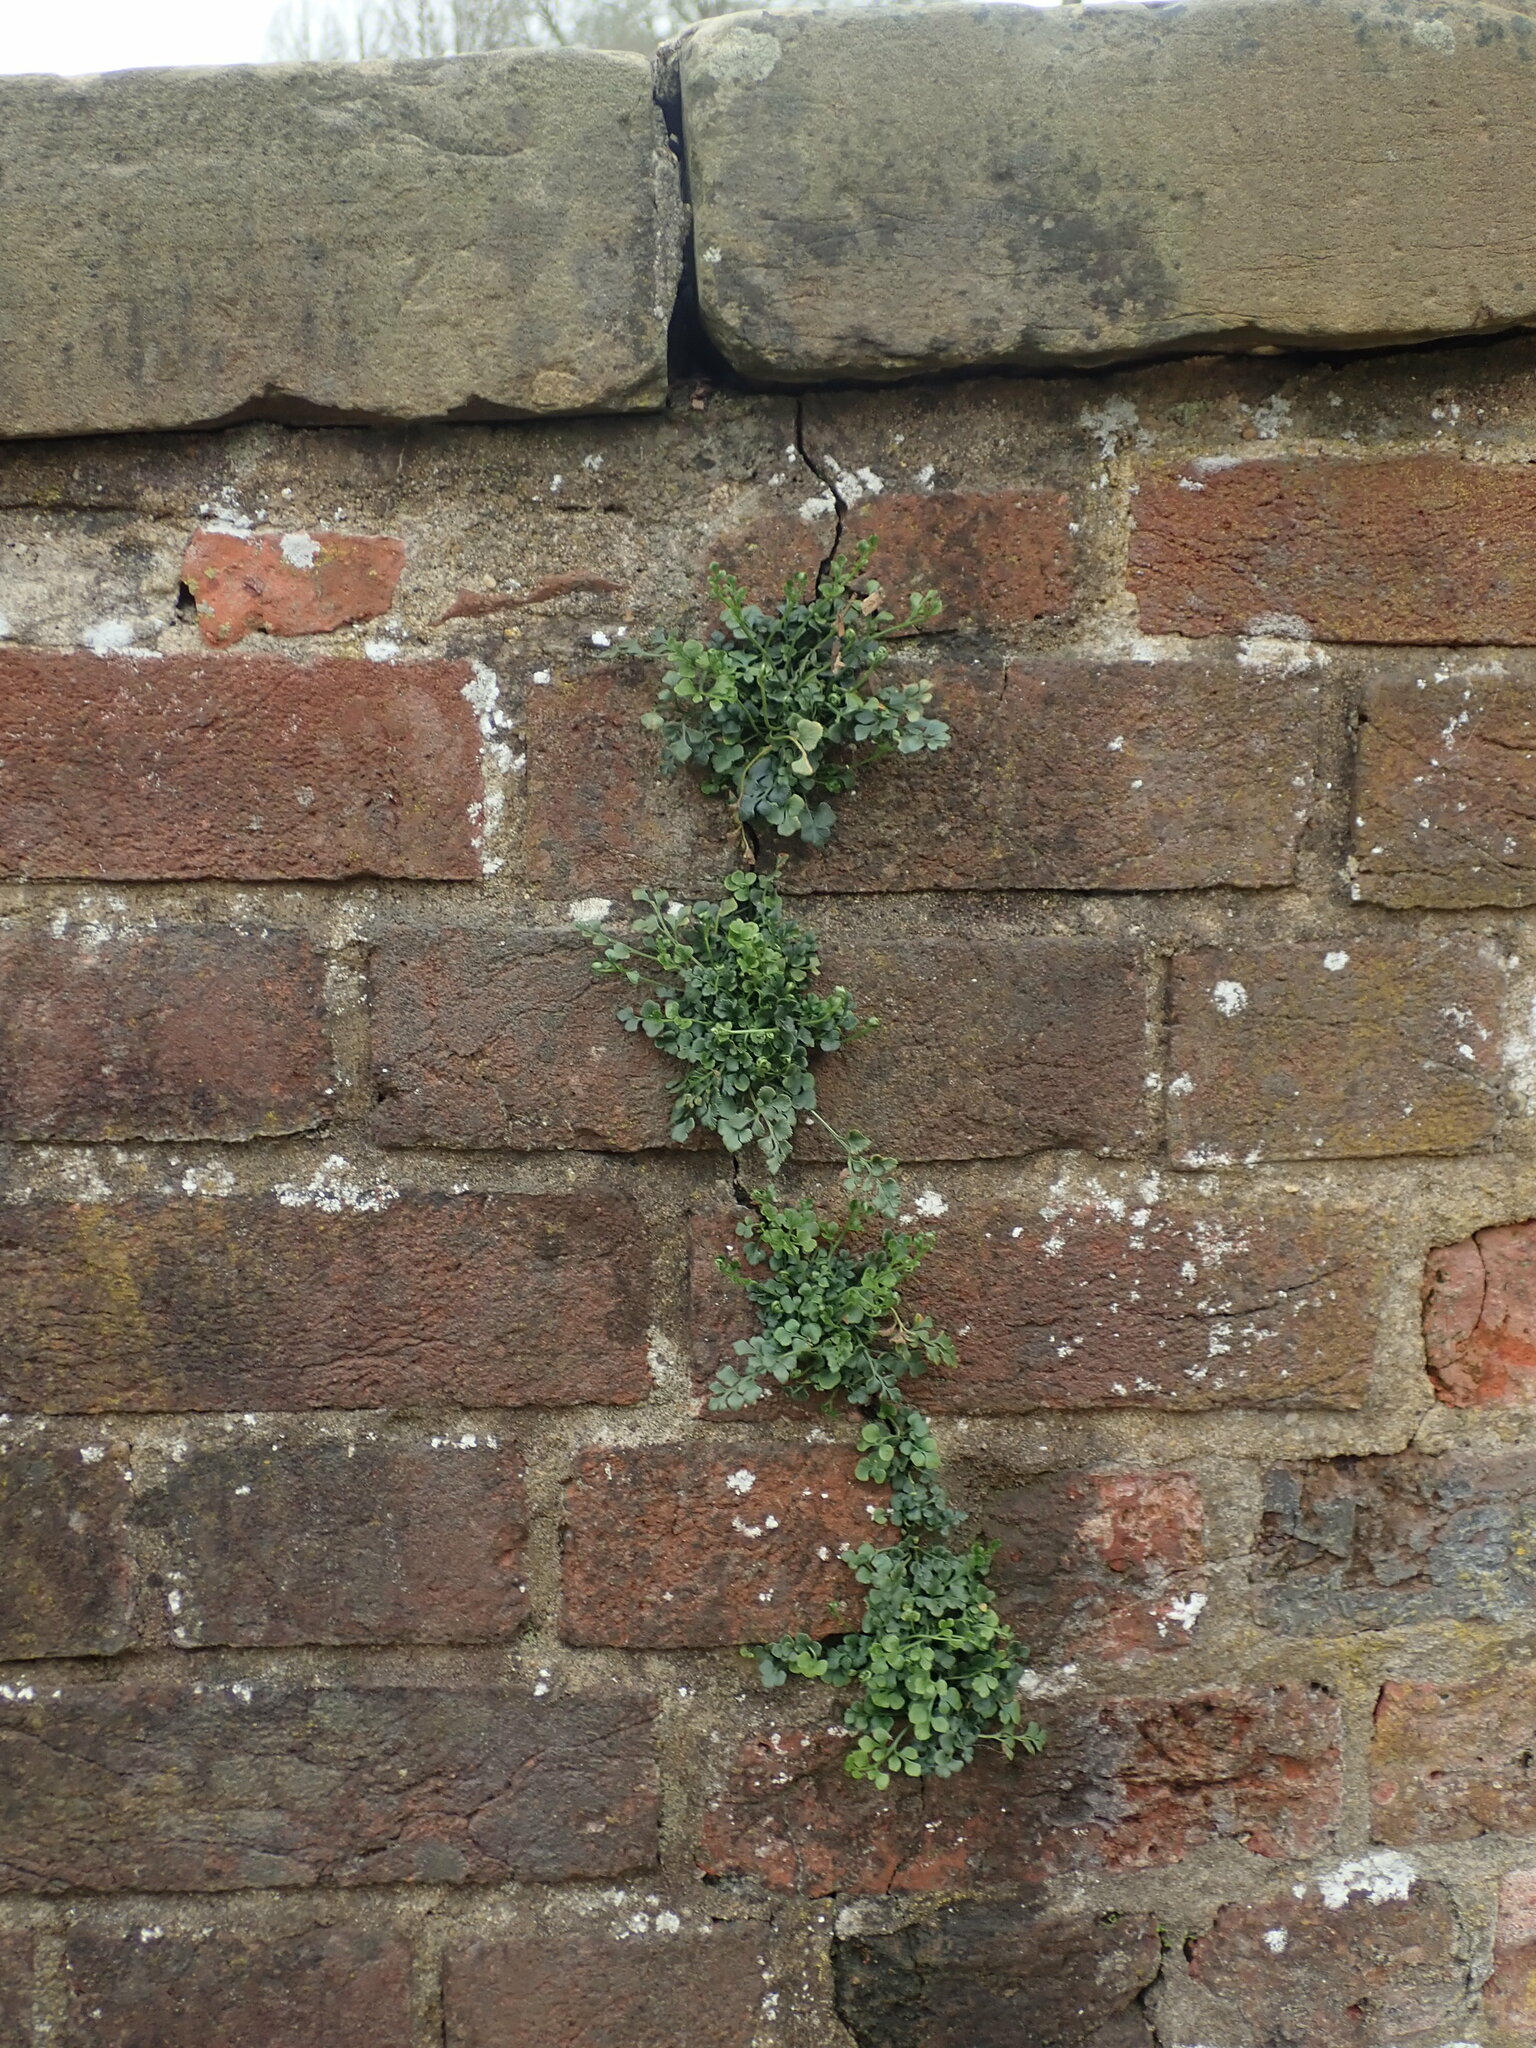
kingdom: Plantae
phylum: Tracheophyta
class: Polypodiopsida
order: Polypodiales
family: Aspleniaceae
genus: Asplenium
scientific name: Asplenium ruta-muraria
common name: Wall-rue
